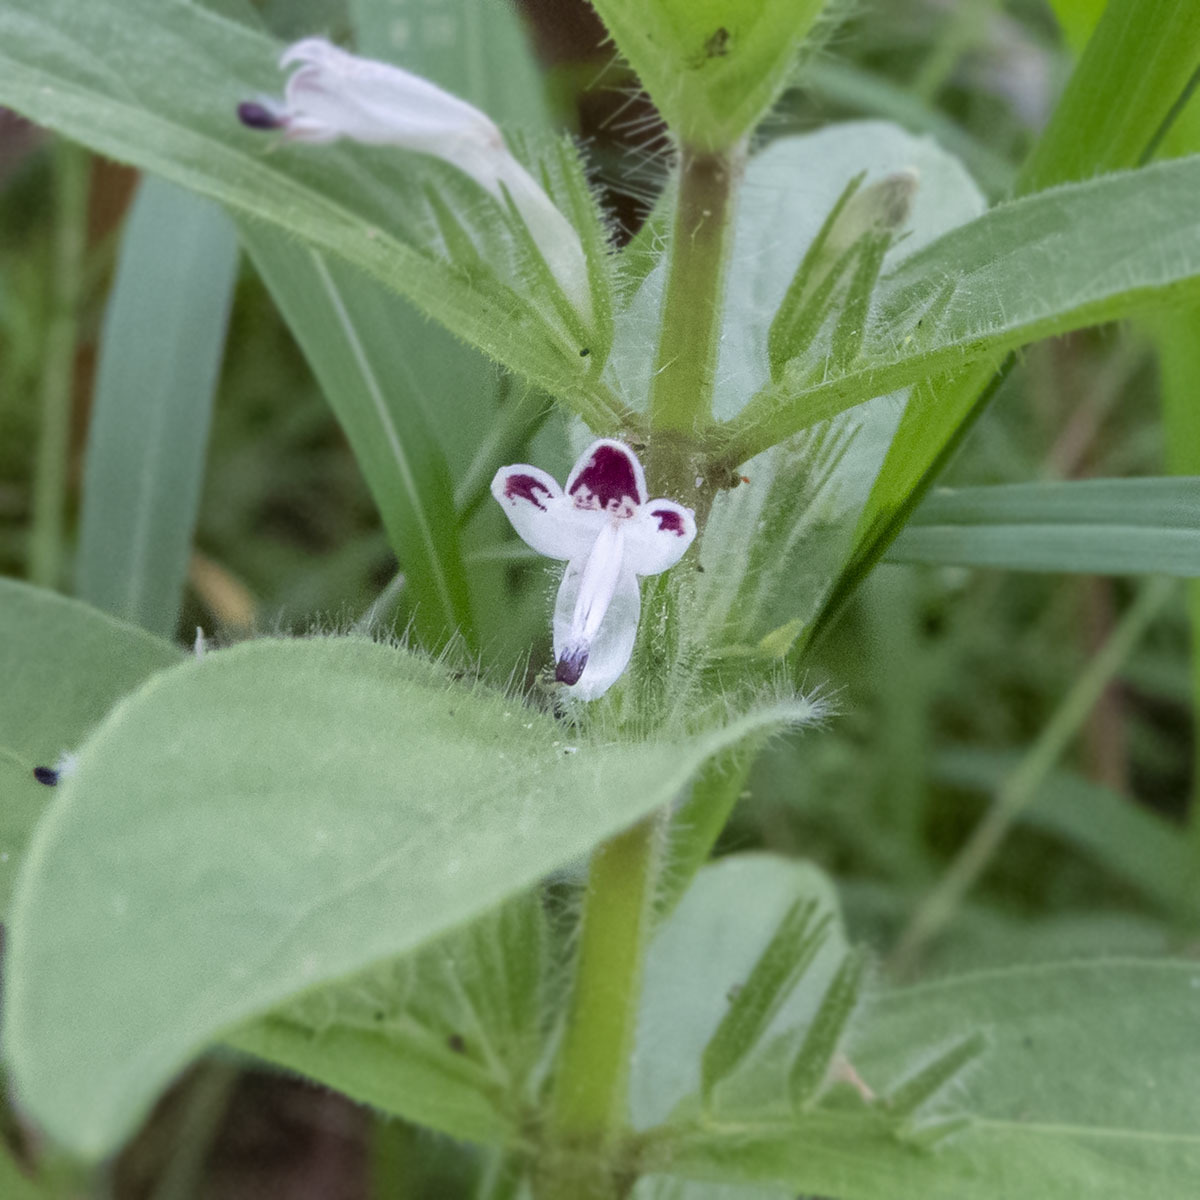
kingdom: Plantae
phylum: Tracheophyta
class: Magnoliopsida
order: Lamiales
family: Acanthaceae
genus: Andrographis
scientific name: Andrographis echioides
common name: False waterwillow
